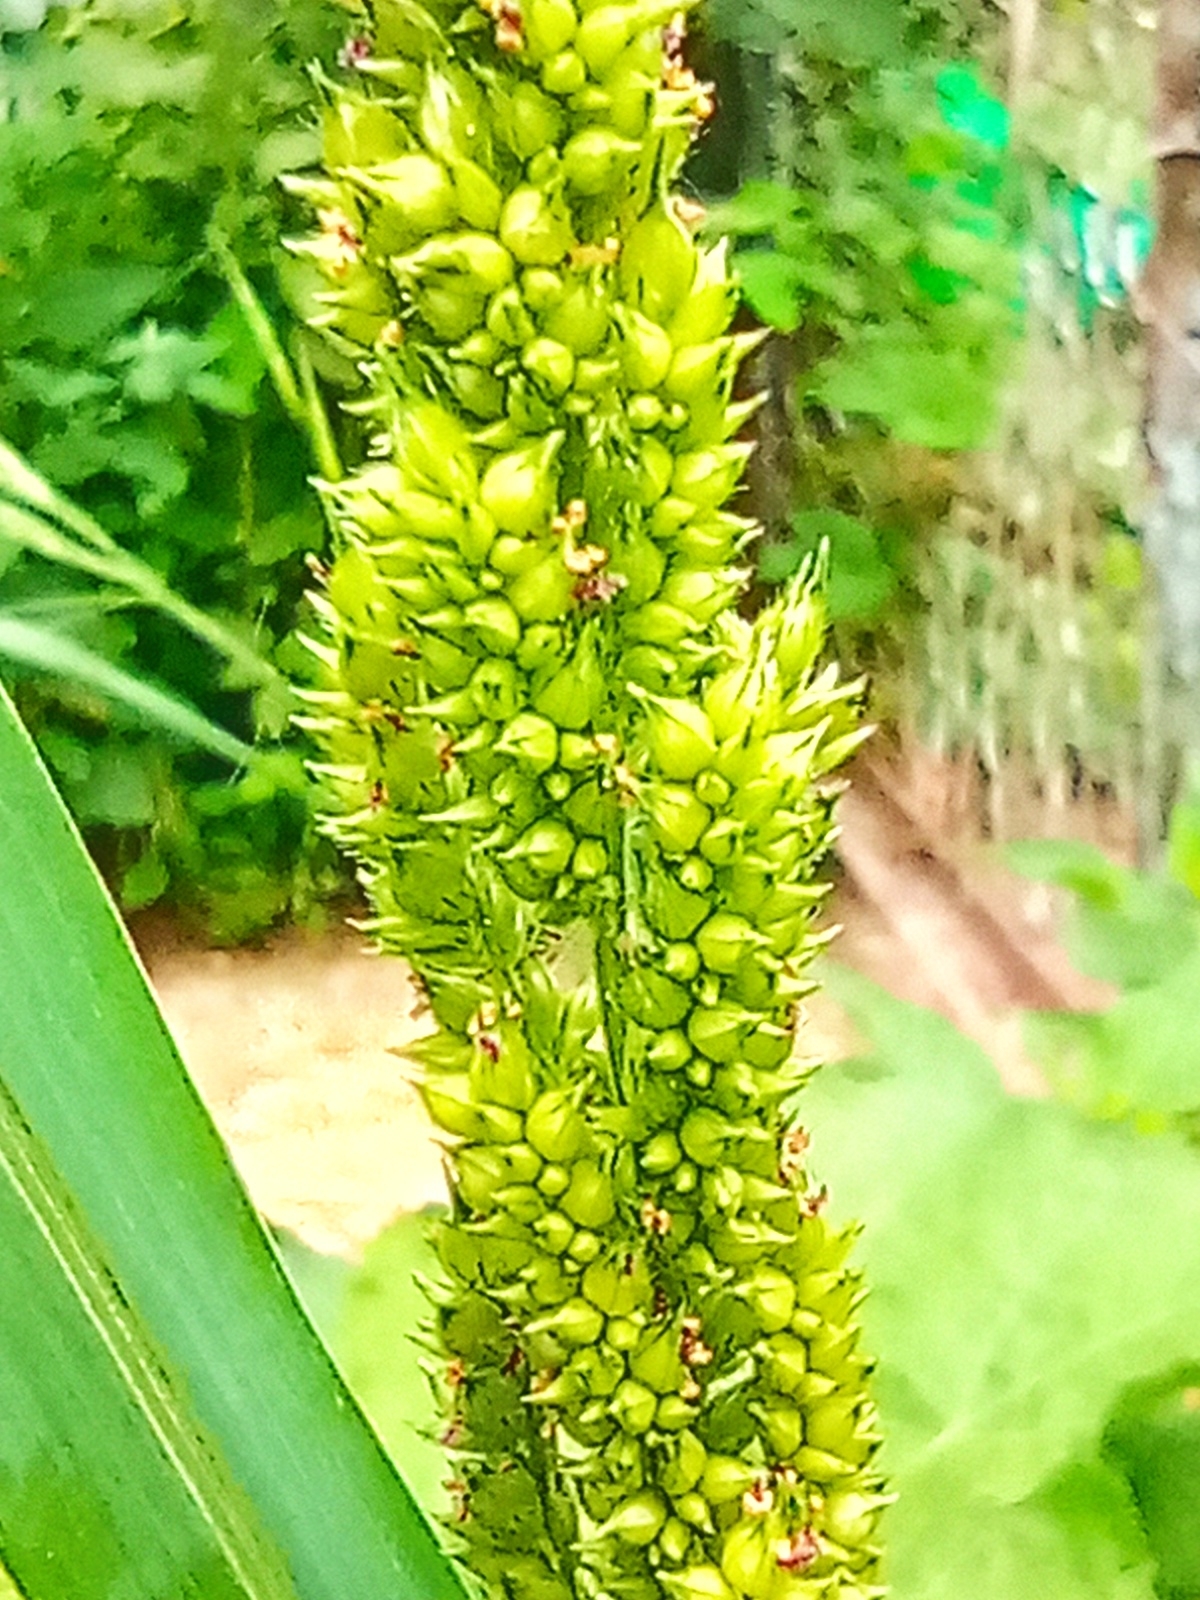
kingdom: Plantae
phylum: Tracheophyta
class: Liliopsida
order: Poales
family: Poaceae
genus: Echinochloa
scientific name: Echinochloa crus-galli
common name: Cockspur
